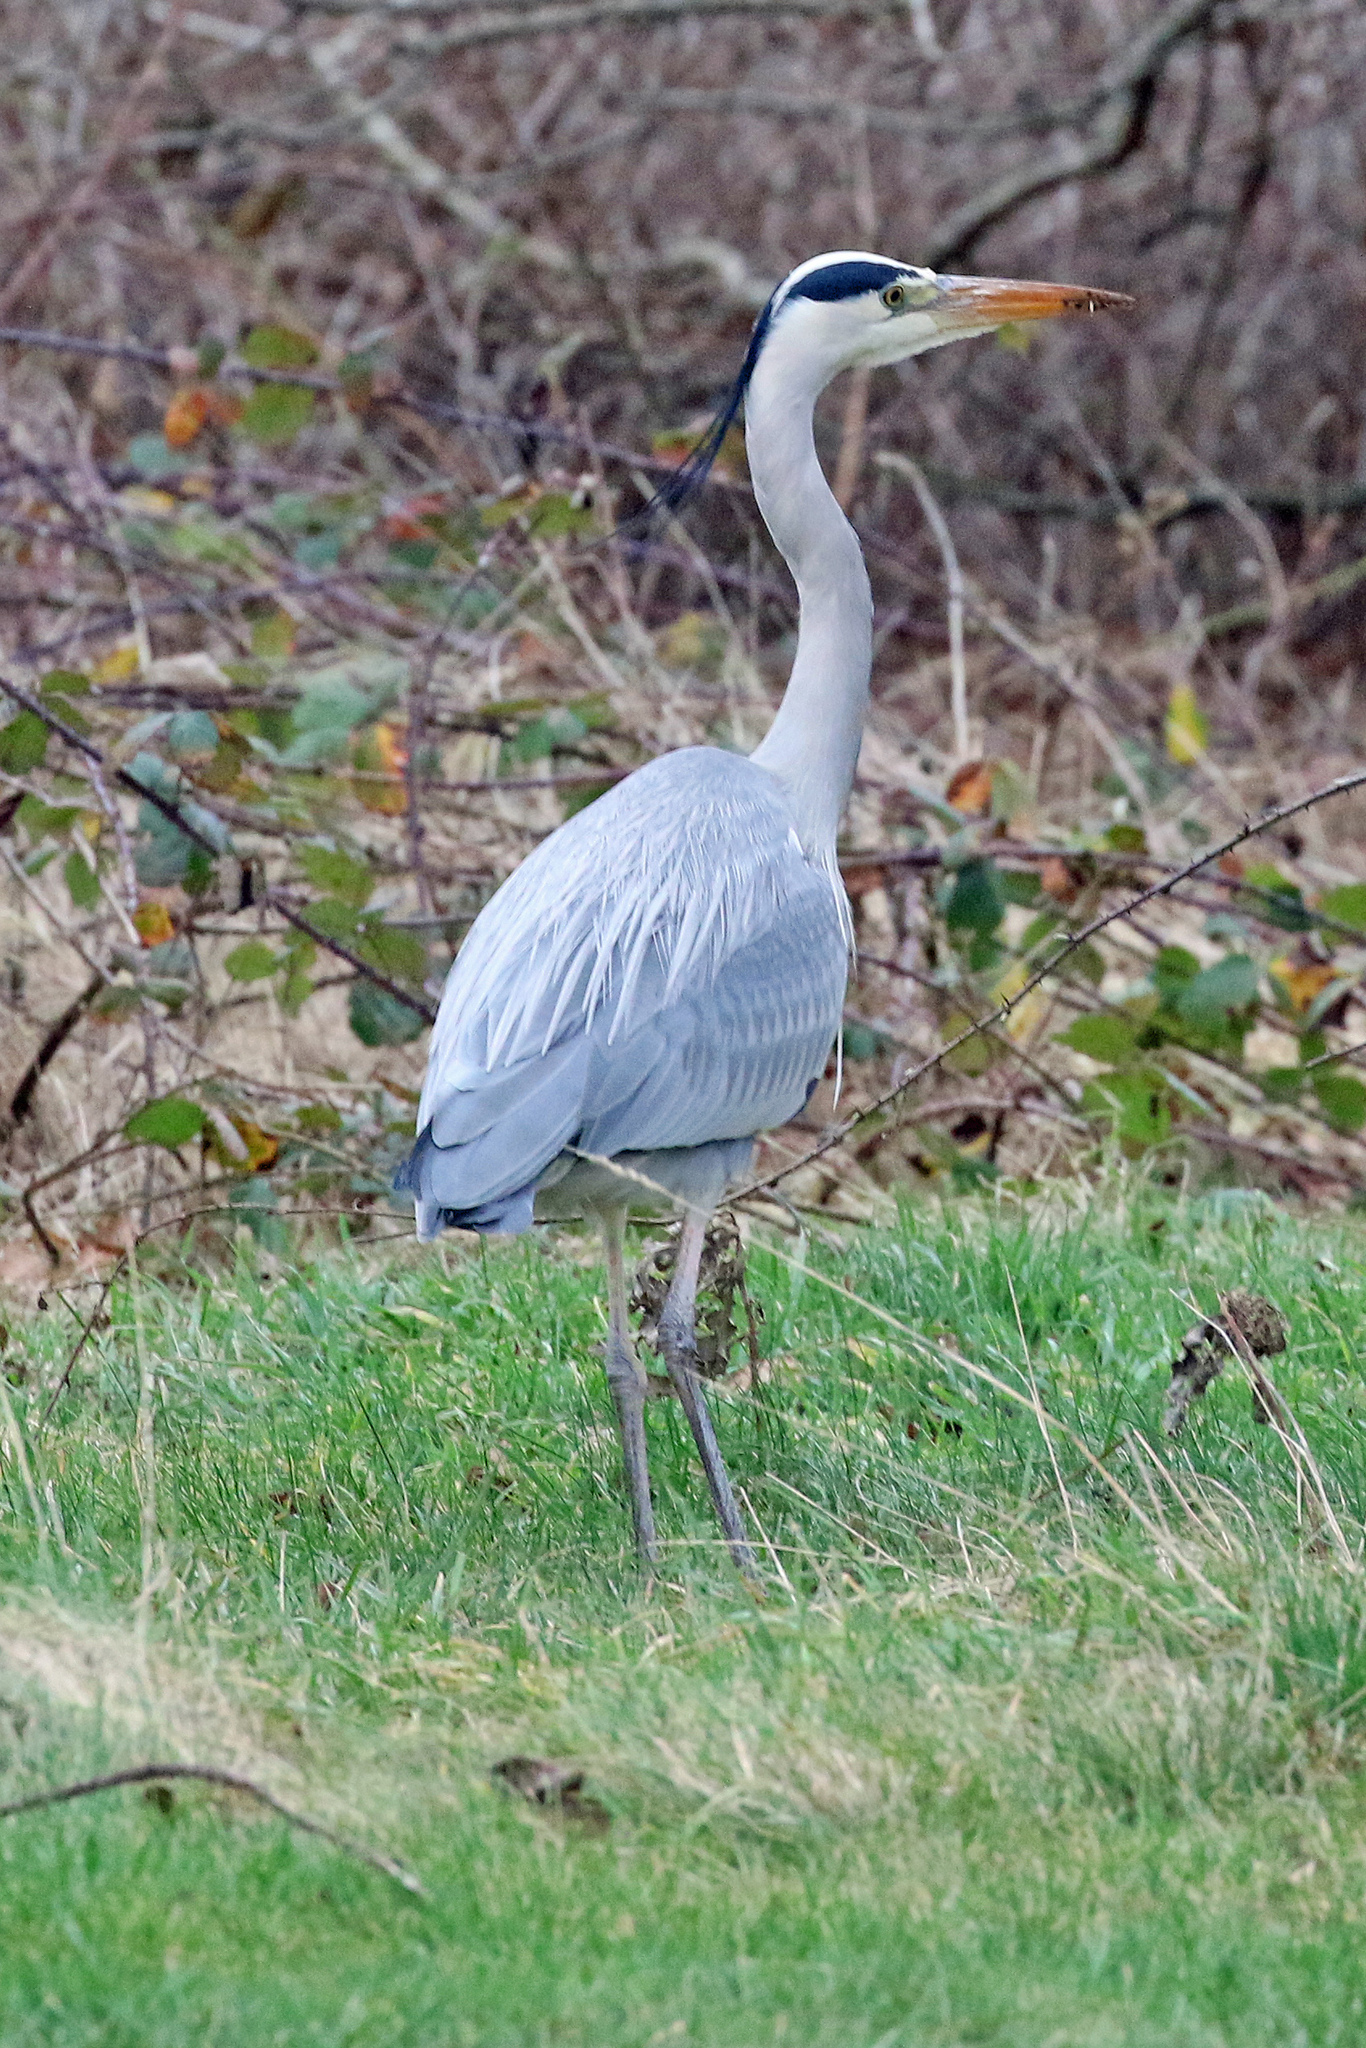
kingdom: Animalia
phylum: Chordata
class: Aves
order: Pelecaniformes
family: Ardeidae
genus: Ardea
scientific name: Ardea cinerea
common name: Grey heron
